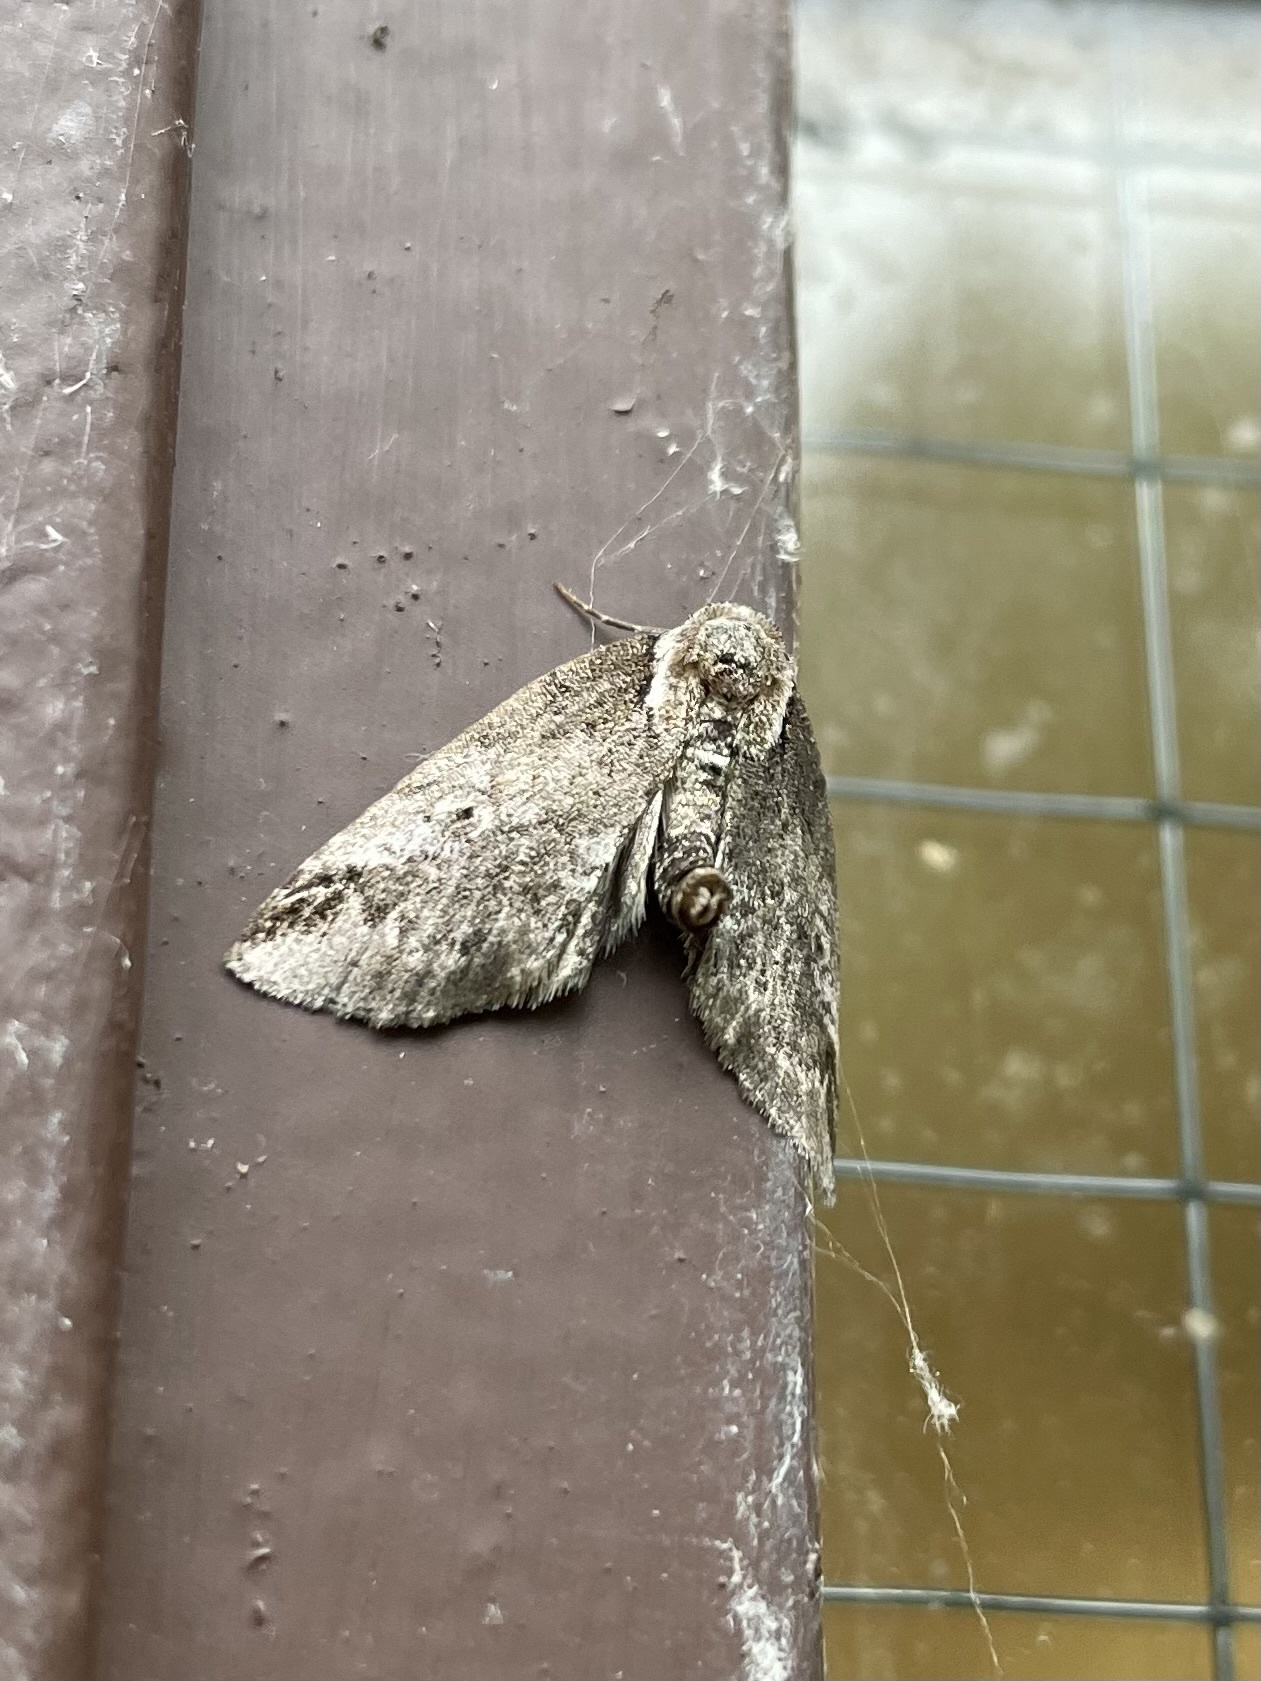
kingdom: Animalia
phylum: Arthropoda
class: Insecta
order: Lepidoptera
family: Nolidae
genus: Baileya
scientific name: Baileya ophthalmica
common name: Eyed baileya moth
